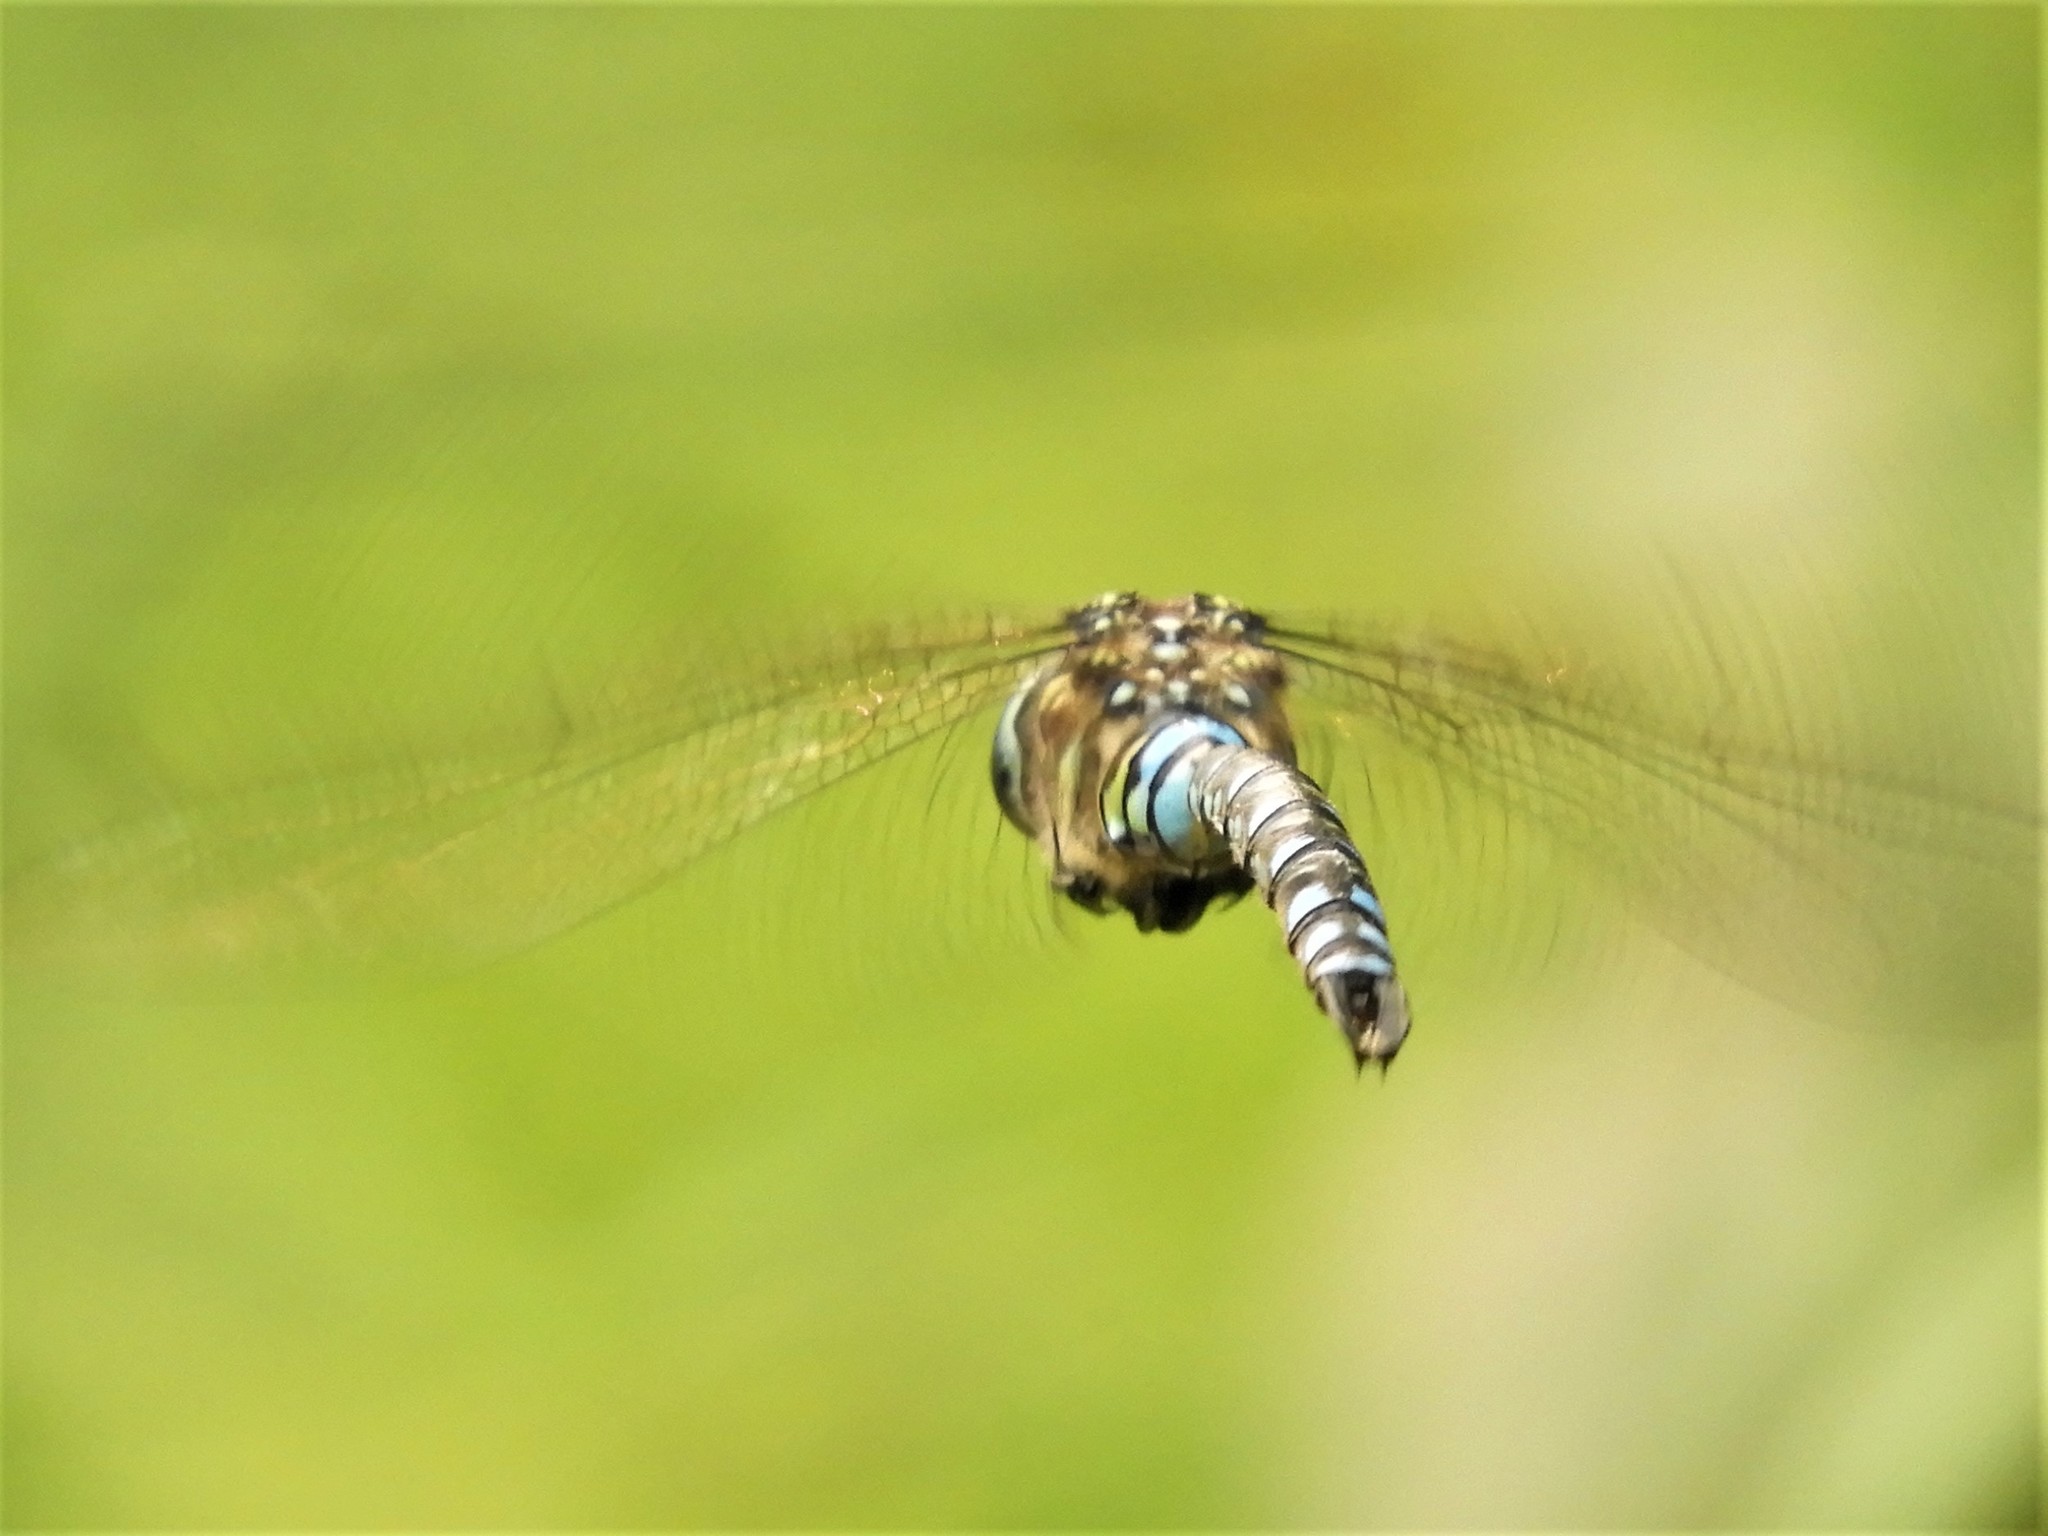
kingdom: Animalia
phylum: Arthropoda
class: Insecta
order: Odonata
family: Aeshnidae
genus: Aeshna
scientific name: Aeshna palmata
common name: Paddle-tailed darner
